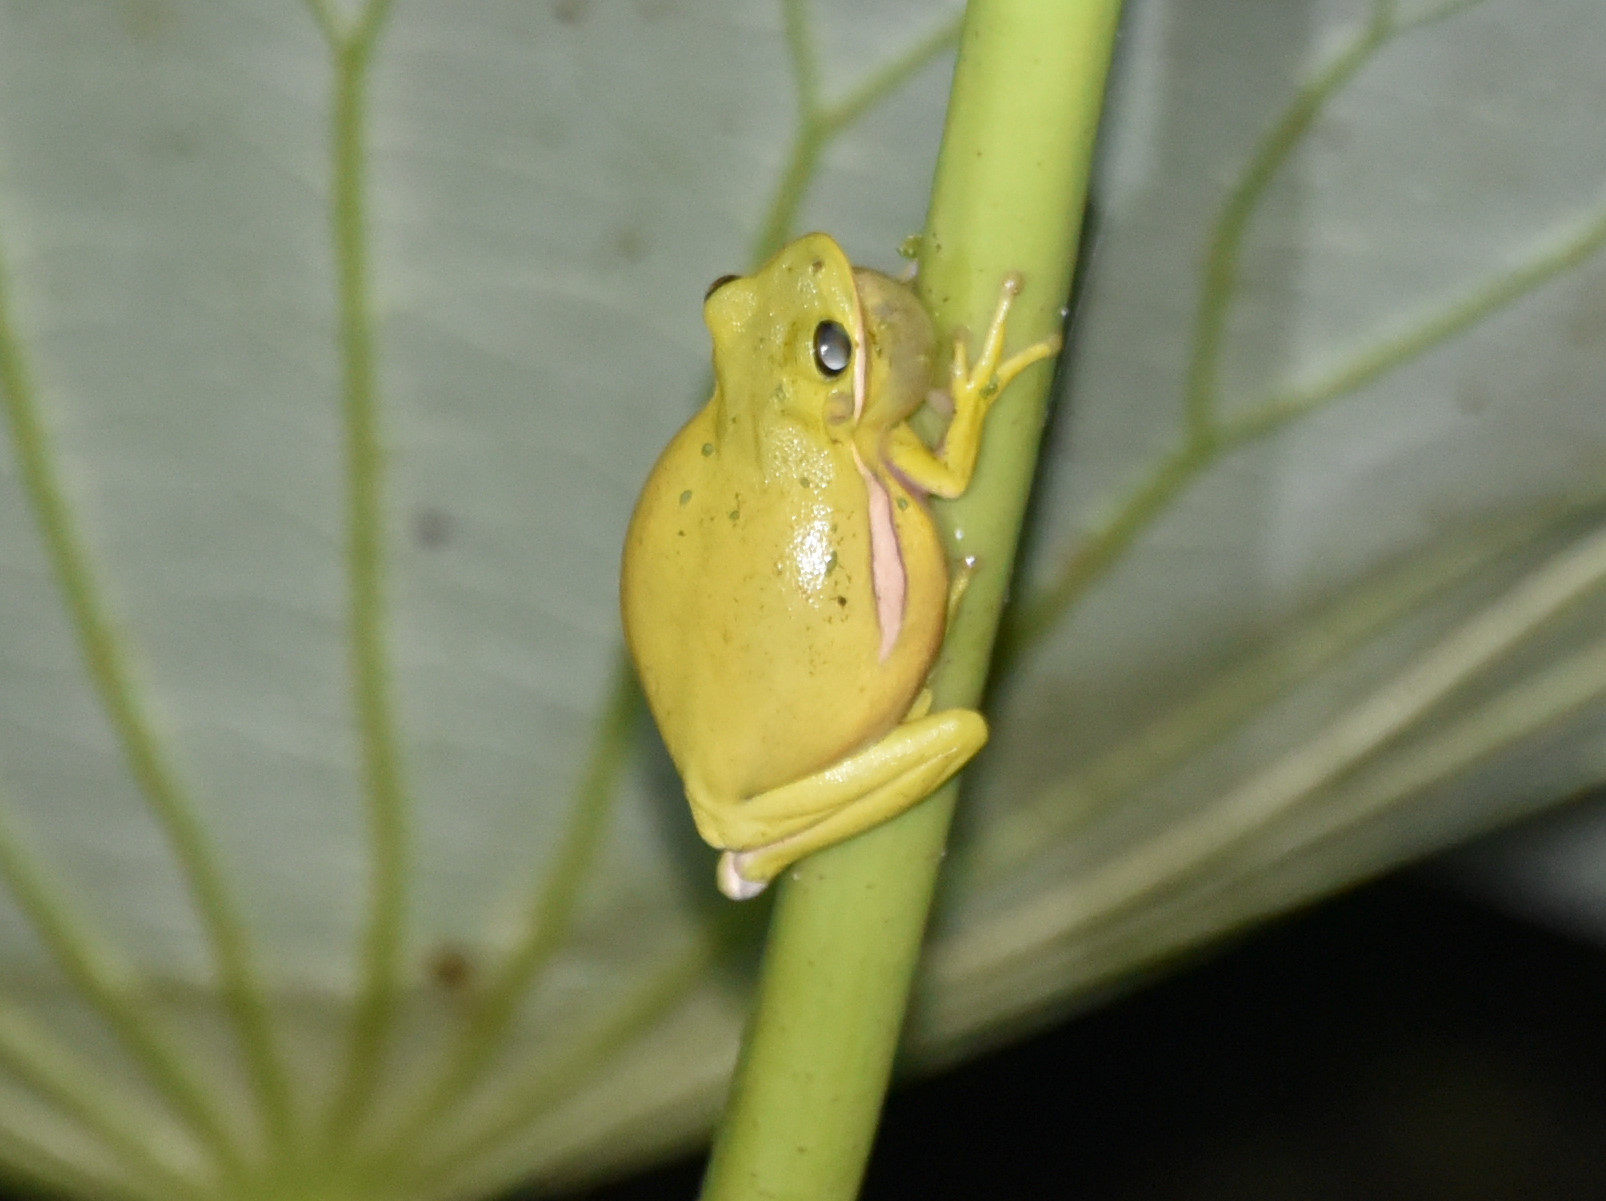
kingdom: Animalia
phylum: Chordata
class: Amphibia
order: Anura
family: Hylidae
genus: Dryophytes
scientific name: Dryophytes cinereus
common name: Green treefrog
